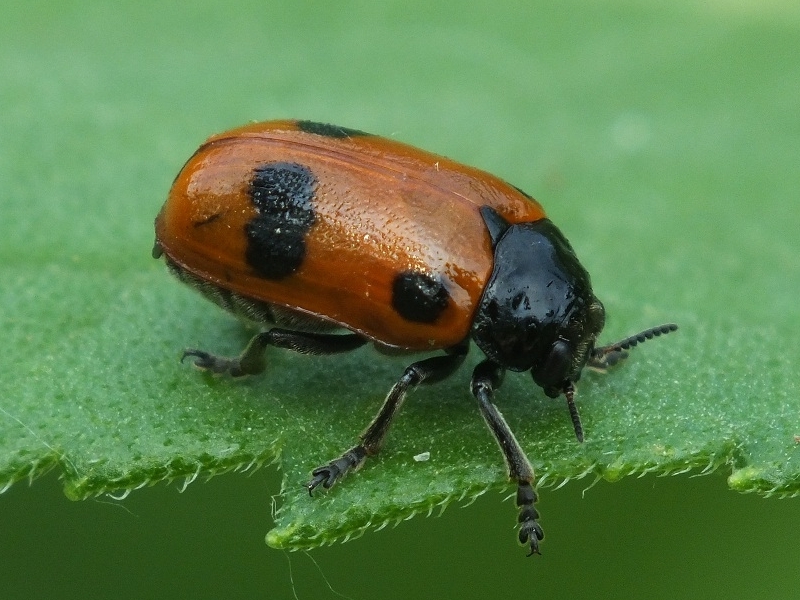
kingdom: Animalia
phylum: Arthropoda
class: Insecta
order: Coleoptera
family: Chrysomelidae
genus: Clytra
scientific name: Clytra laeviuscula
